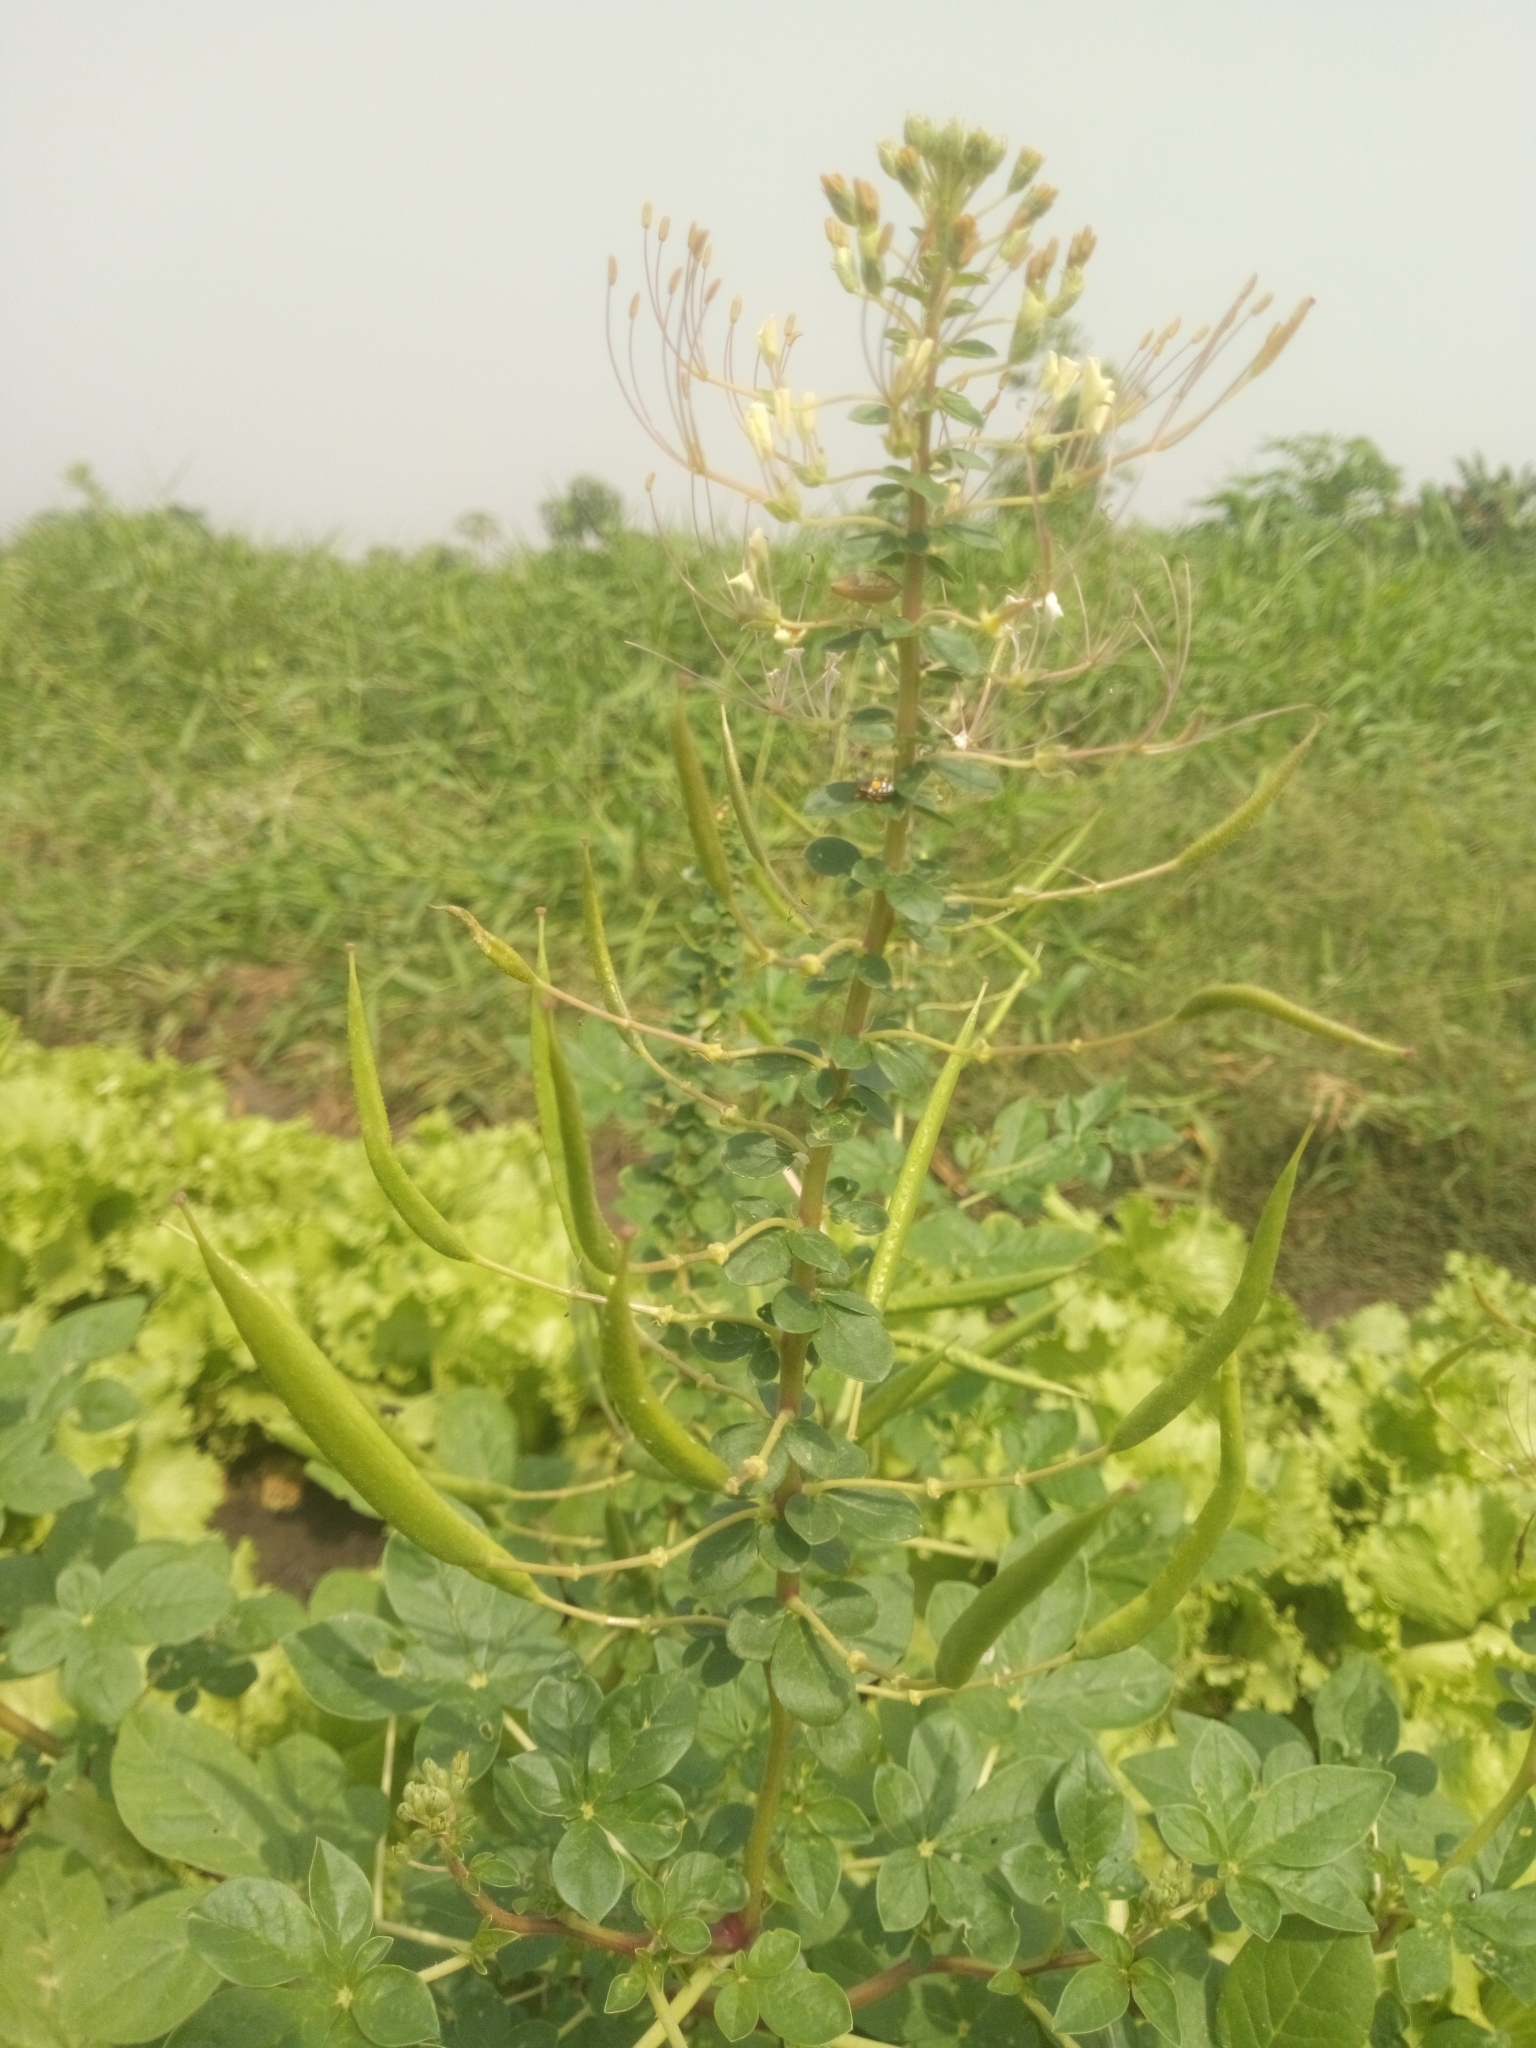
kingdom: Plantae
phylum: Tracheophyta
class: Magnoliopsida
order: Brassicales
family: Cleomaceae
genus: Gynandropsis
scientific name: Gynandropsis gynandra
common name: Spiderwisp
